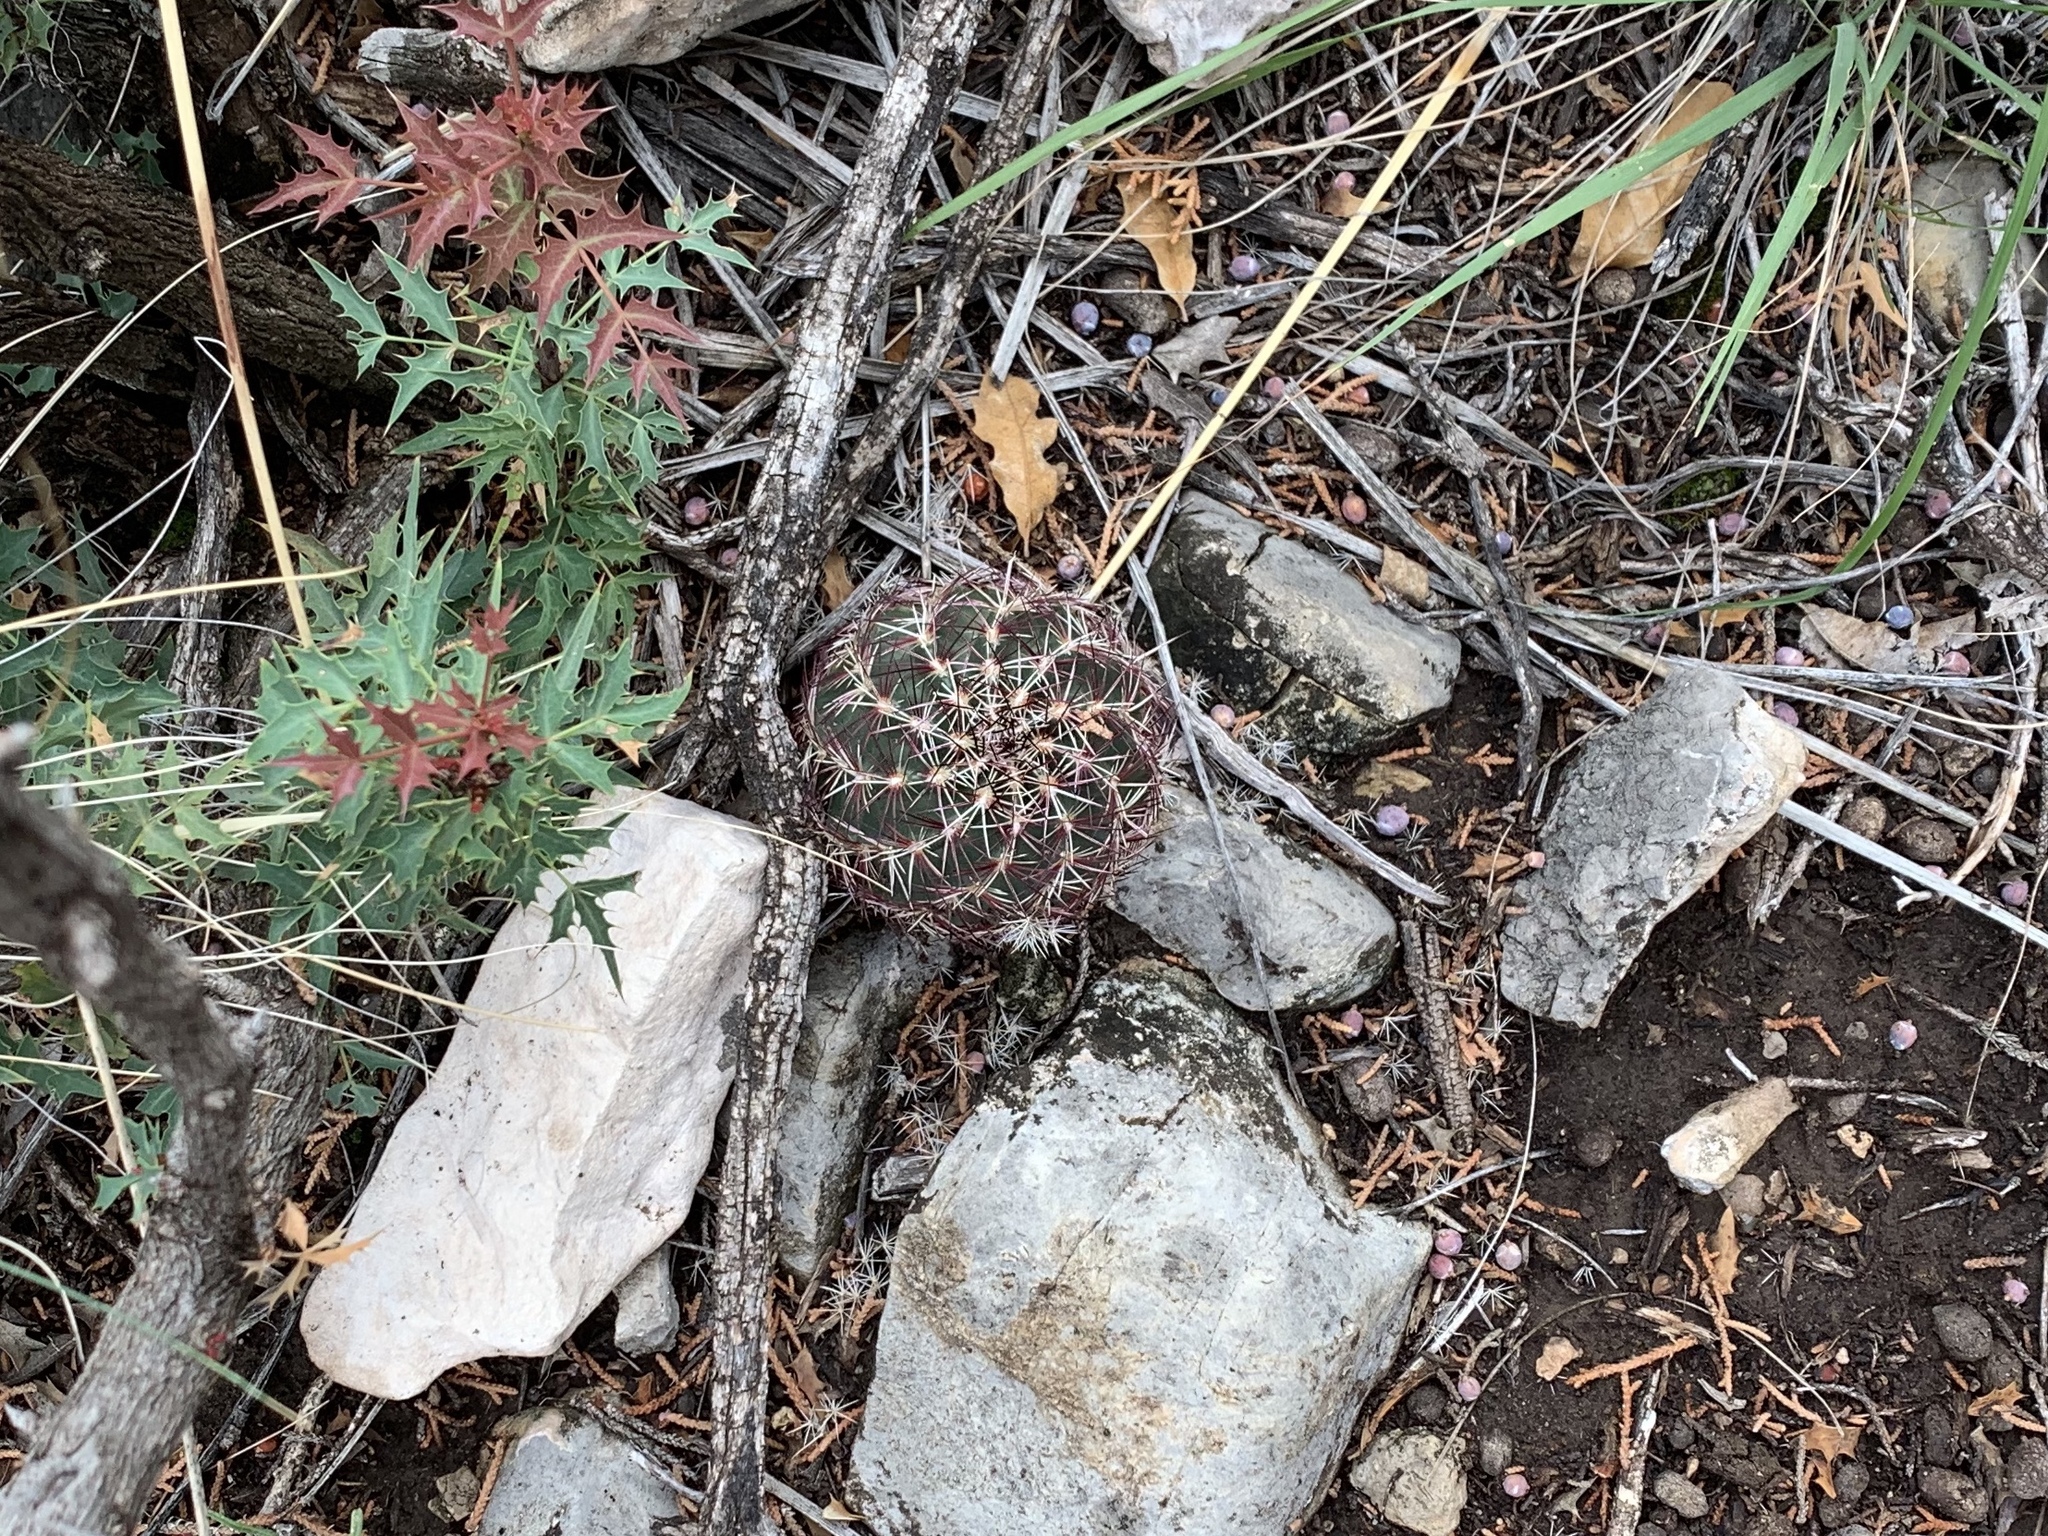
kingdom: Plantae
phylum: Tracheophyta
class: Magnoliopsida
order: Caryophyllales
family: Cactaceae
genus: Echinocereus
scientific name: Echinocereus viridiflorus
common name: Nylon hedgehog cactus
